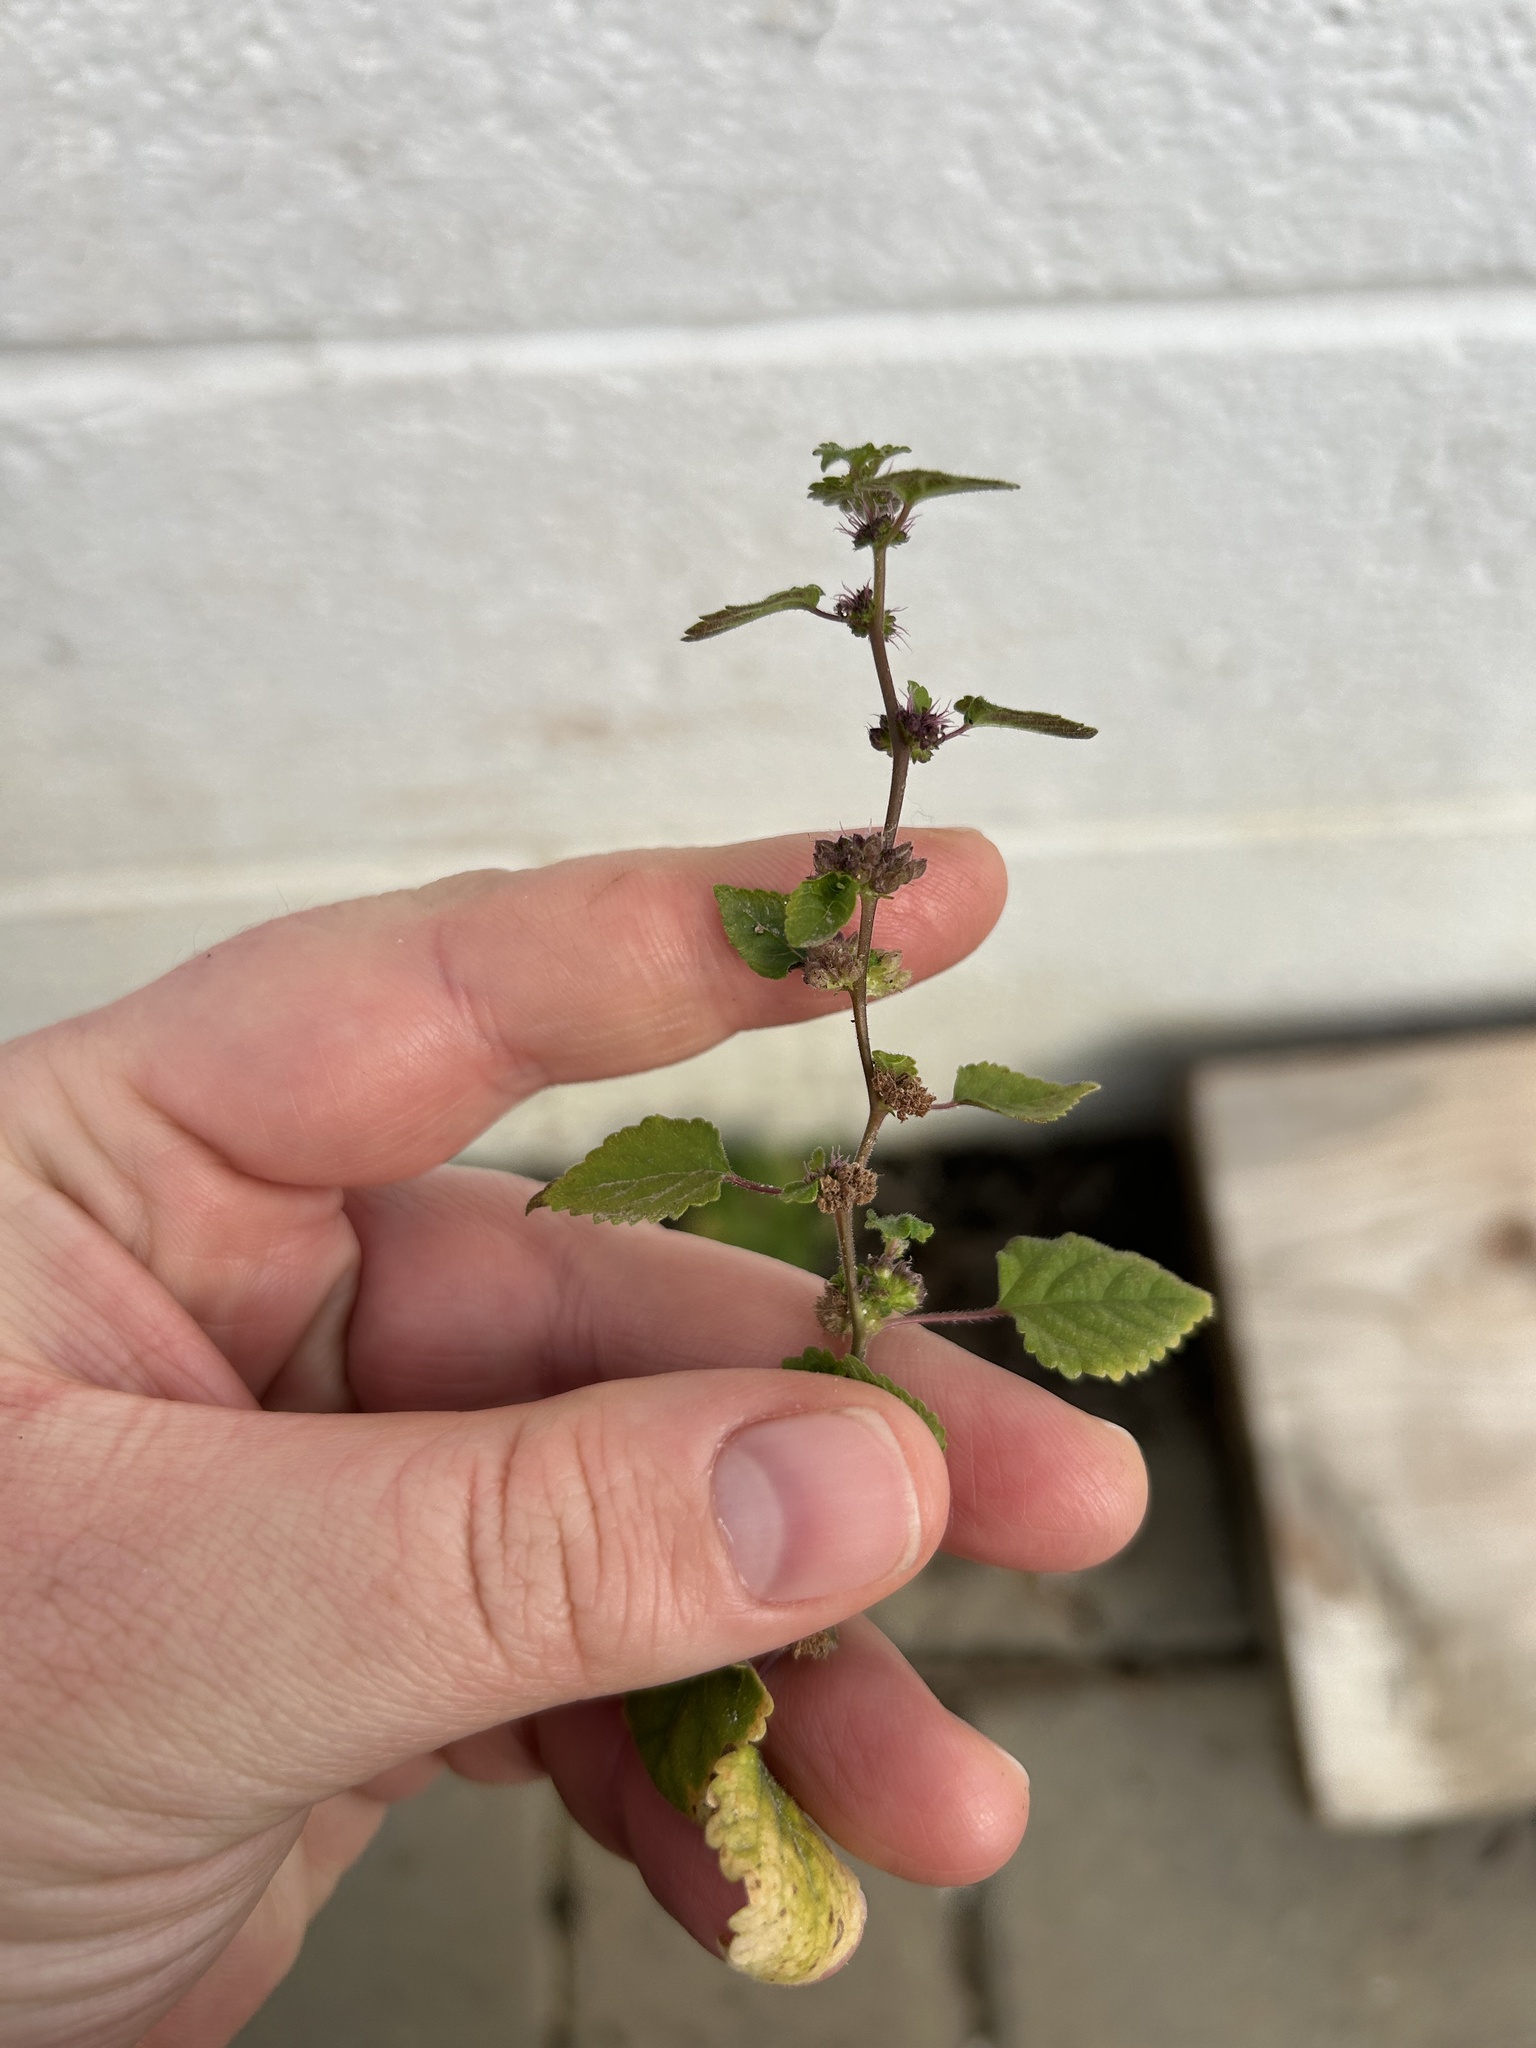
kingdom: Plantae
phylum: Tracheophyta
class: Magnoliopsida
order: Rosales
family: Moraceae
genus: Fatoua
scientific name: Fatoua villosa
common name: Hairy crabweed
